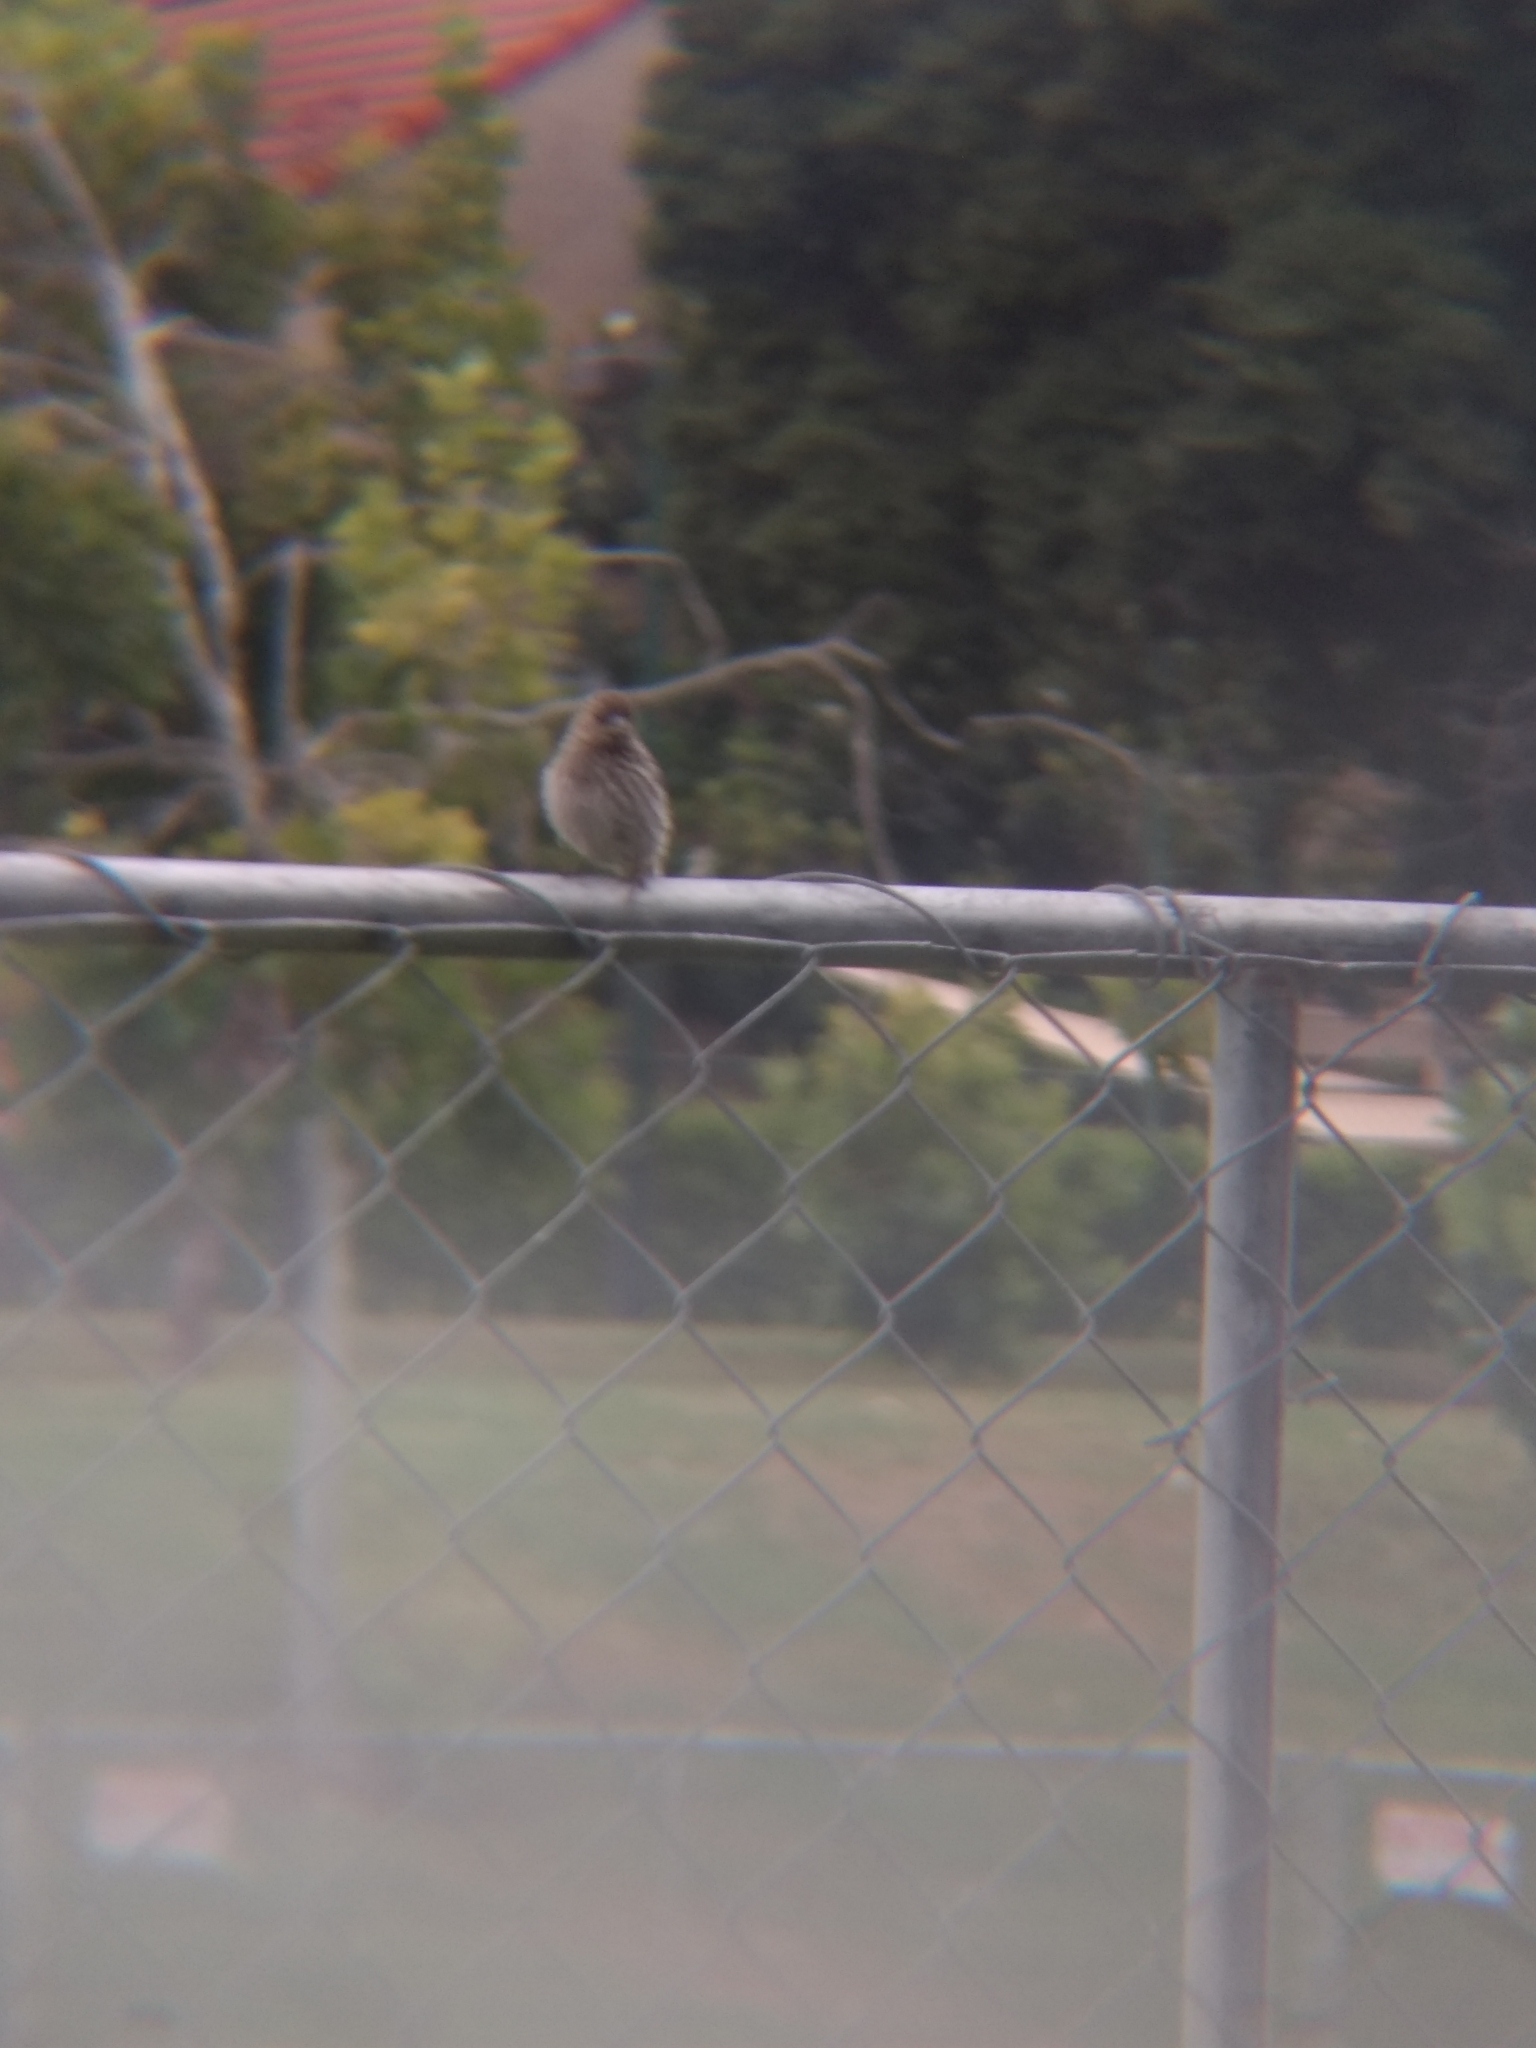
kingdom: Animalia
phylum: Chordata
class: Aves
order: Passeriformes
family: Fringillidae
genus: Haemorhous
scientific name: Haemorhous mexicanus
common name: House finch
